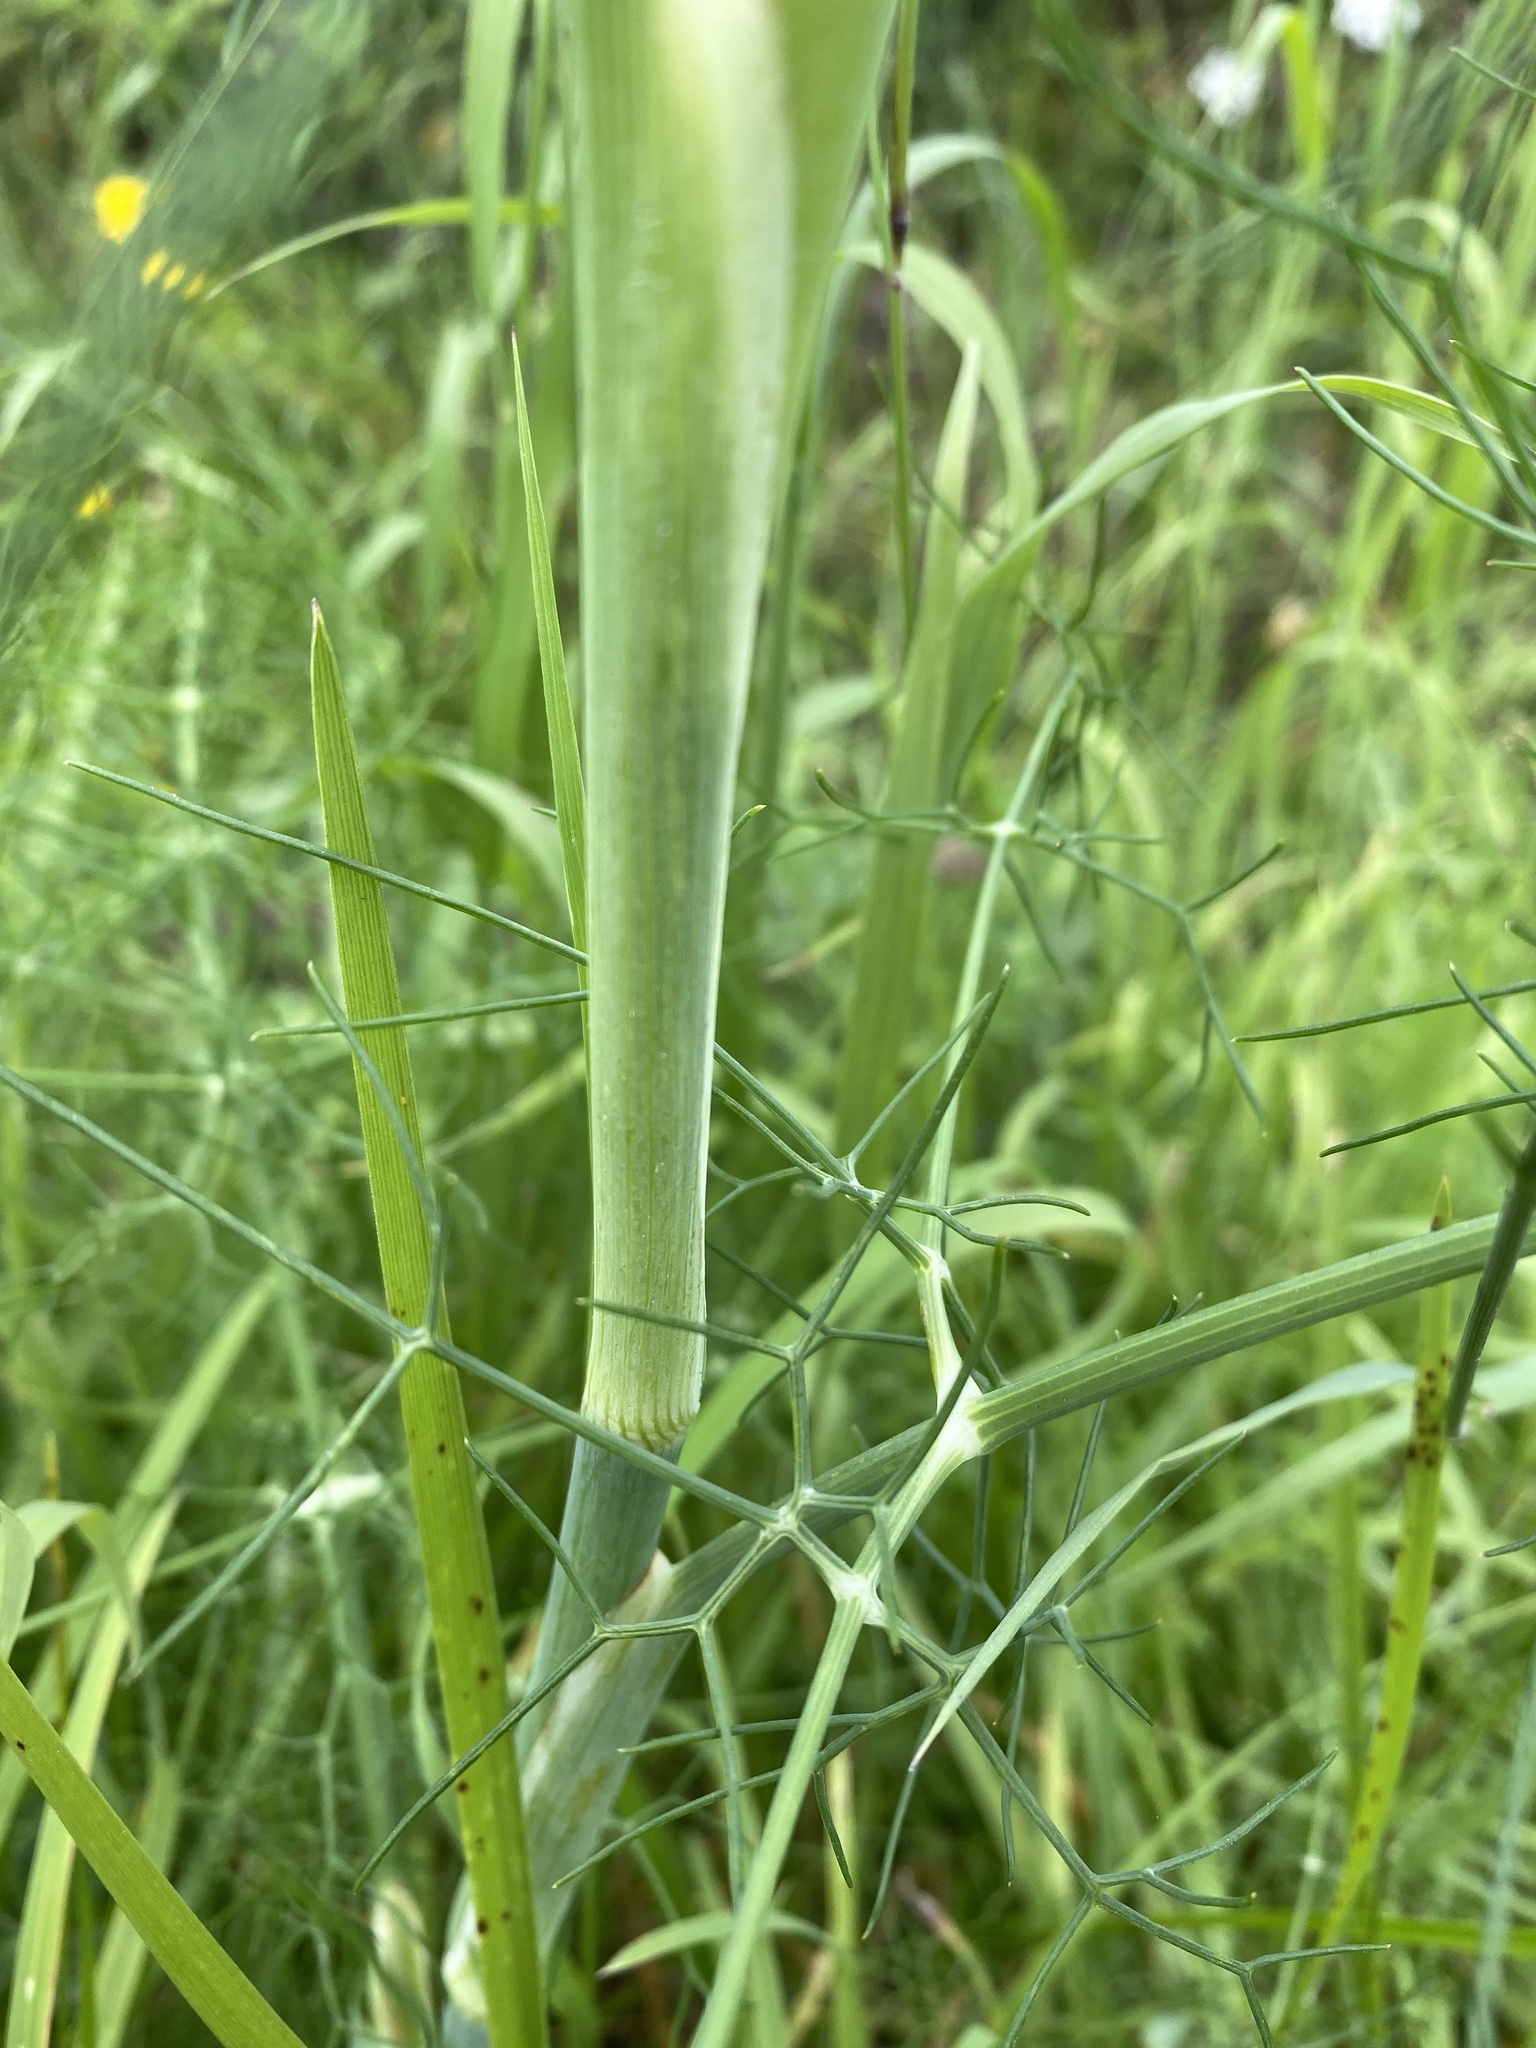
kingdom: Plantae
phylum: Tracheophyta
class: Magnoliopsida
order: Apiales
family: Apiaceae
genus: Foeniculum
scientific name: Foeniculum vulgare
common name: Fennel
